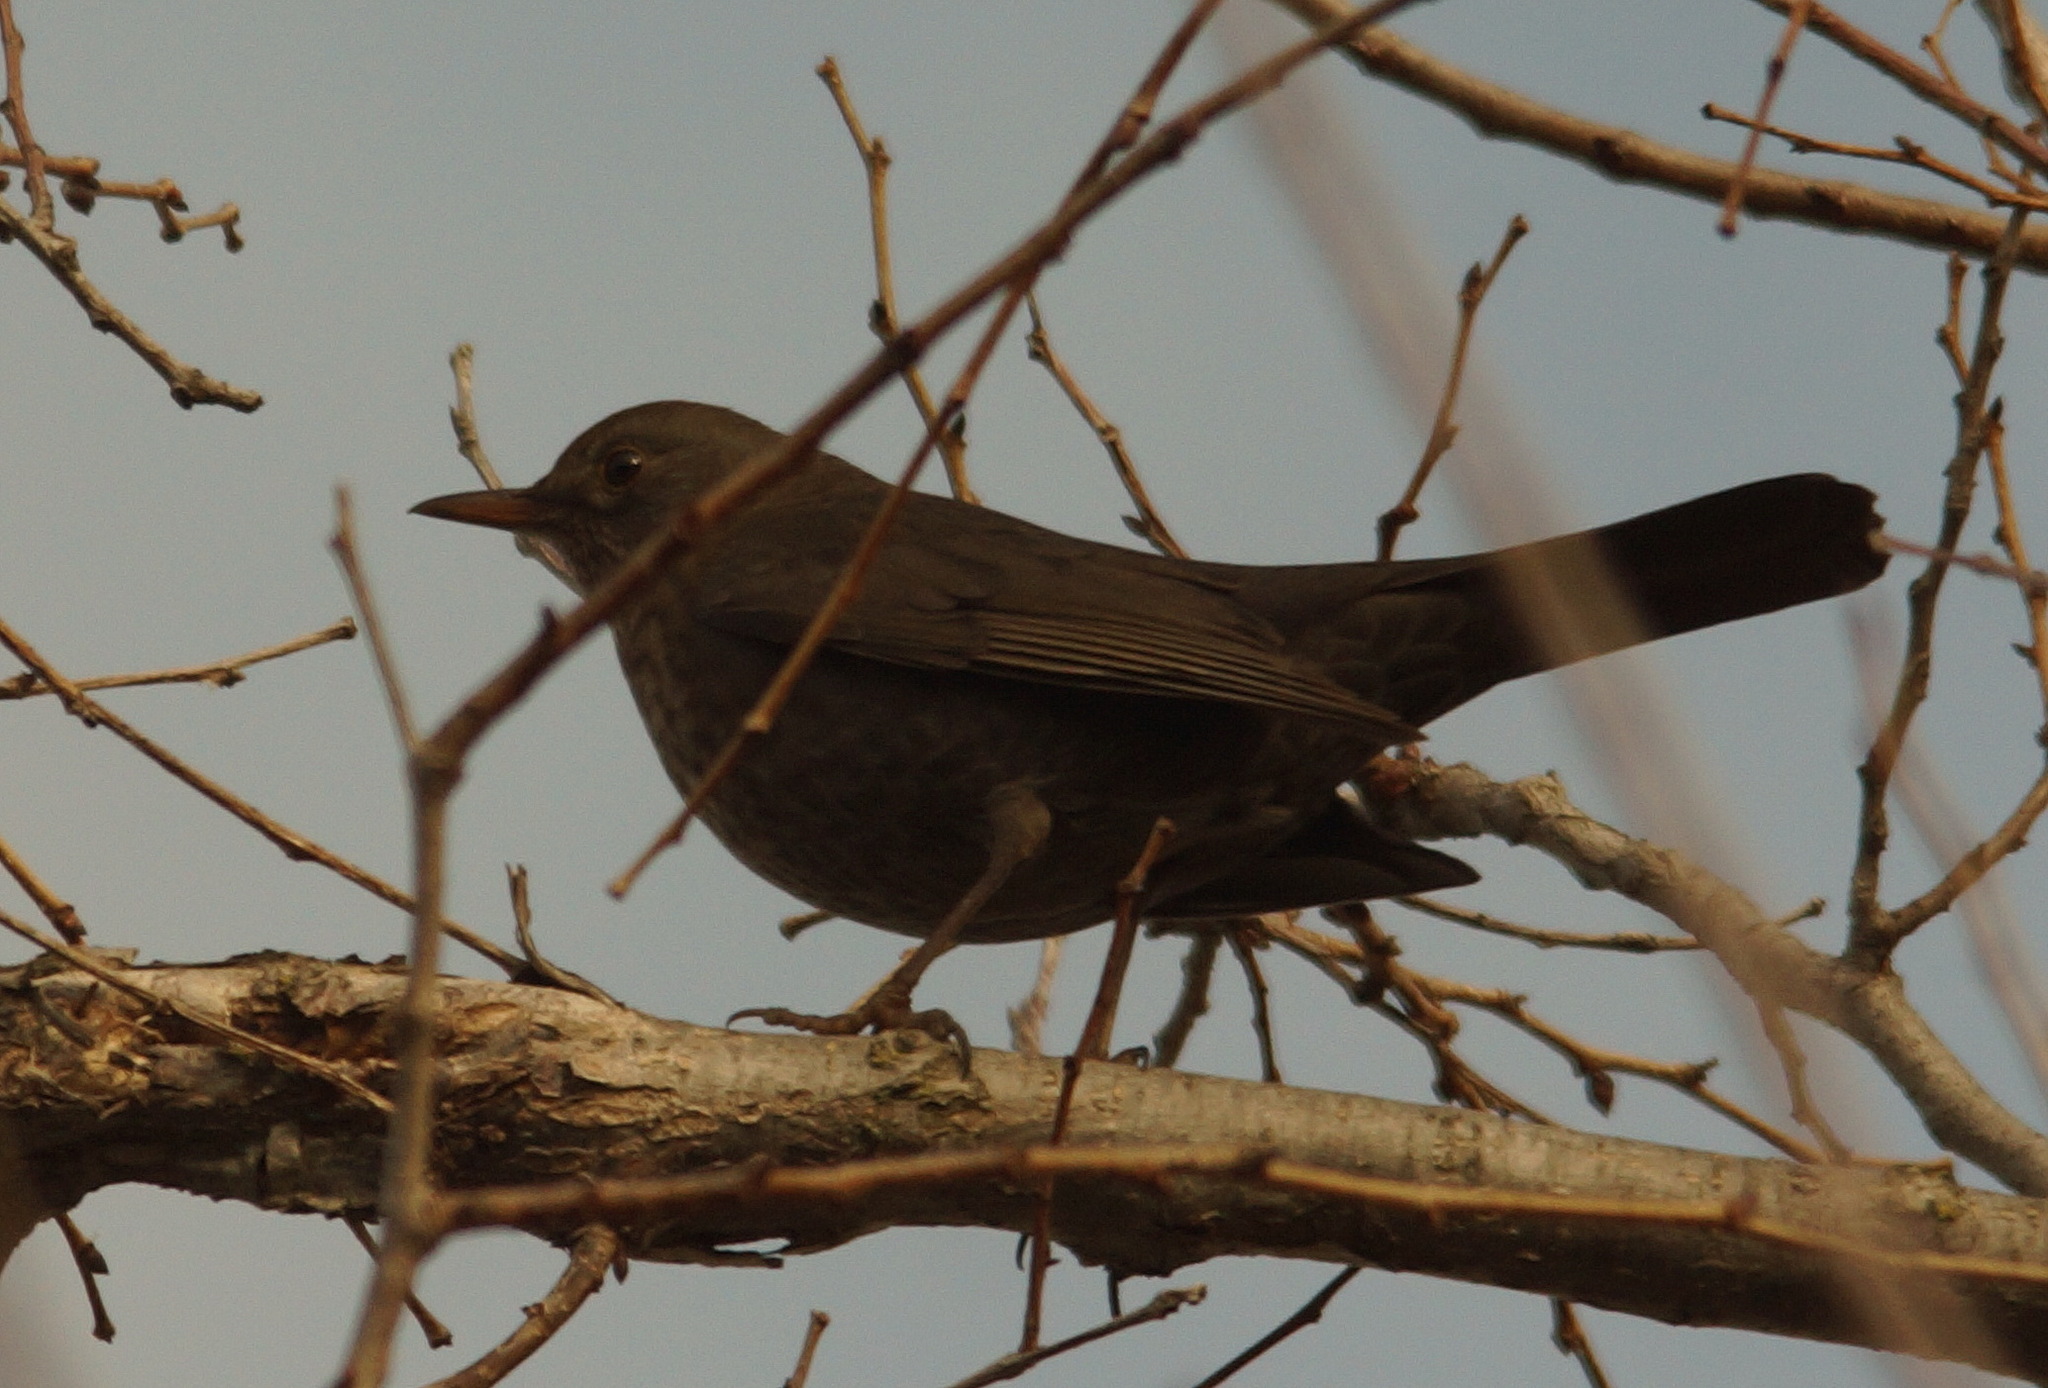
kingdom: Animalia
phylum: Chordata
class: Aves
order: Passeriformes
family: Turdidae
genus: Turdus
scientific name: Turdus merula
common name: Common blackbird
